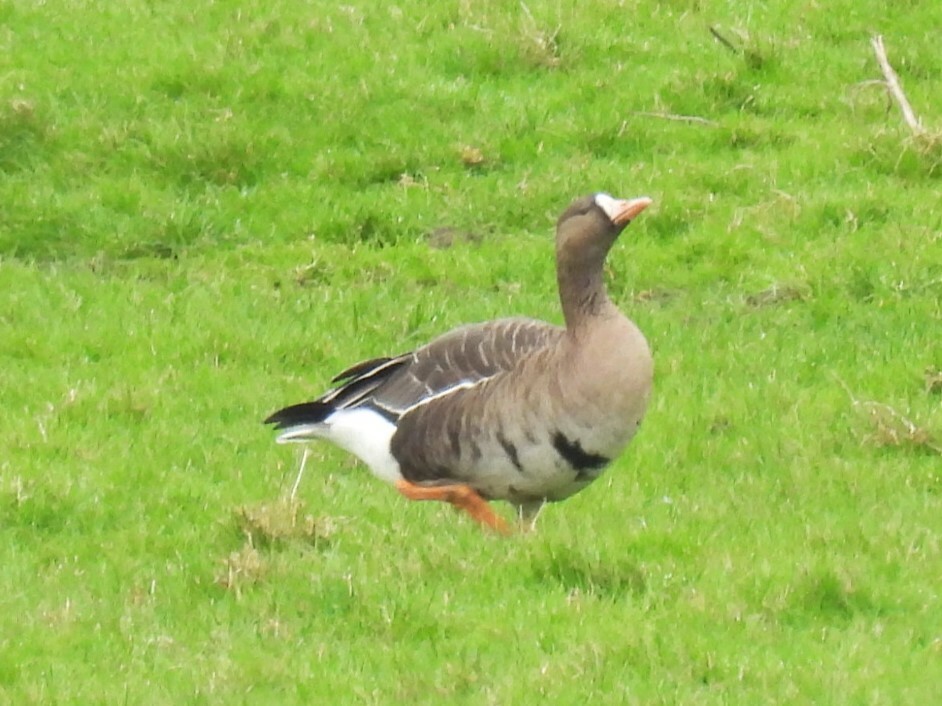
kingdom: Animalia
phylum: Chordata
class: Aves
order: Anseriformes
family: Anatidae
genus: Anser
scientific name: Anser albifrons
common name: Greater white-fronted goose
